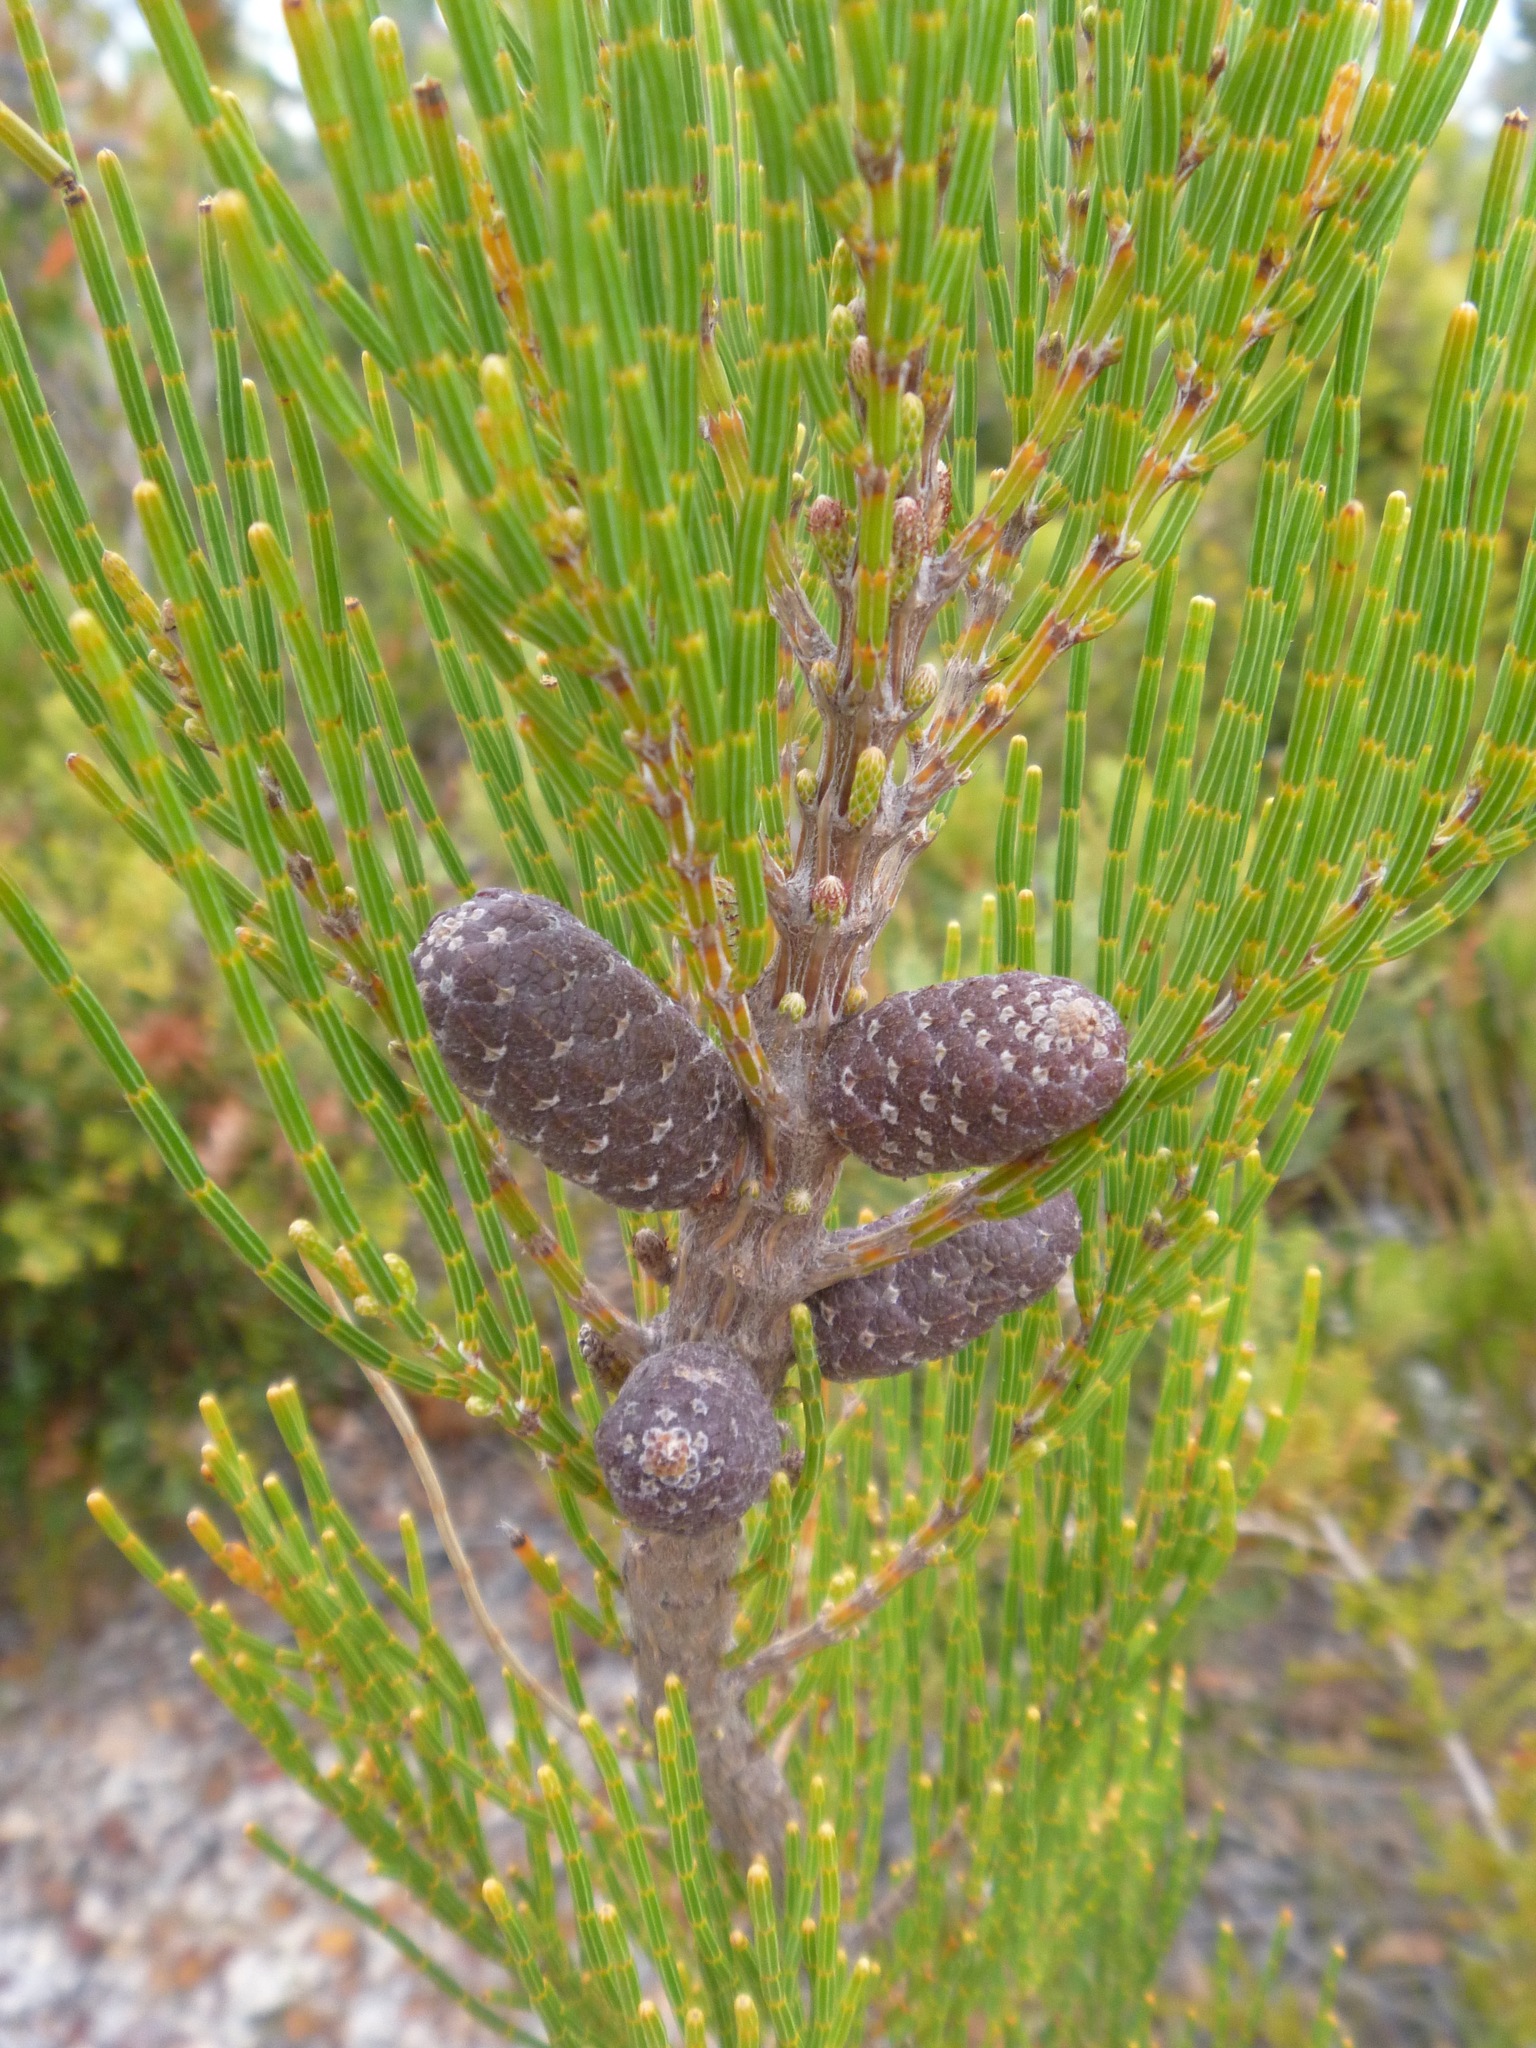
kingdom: Plantae
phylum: Tracheophyta
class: Magnoliopsida
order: Fagales
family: Casuarinaceae
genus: Allocasuarina
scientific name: Allocasuarina humilis
